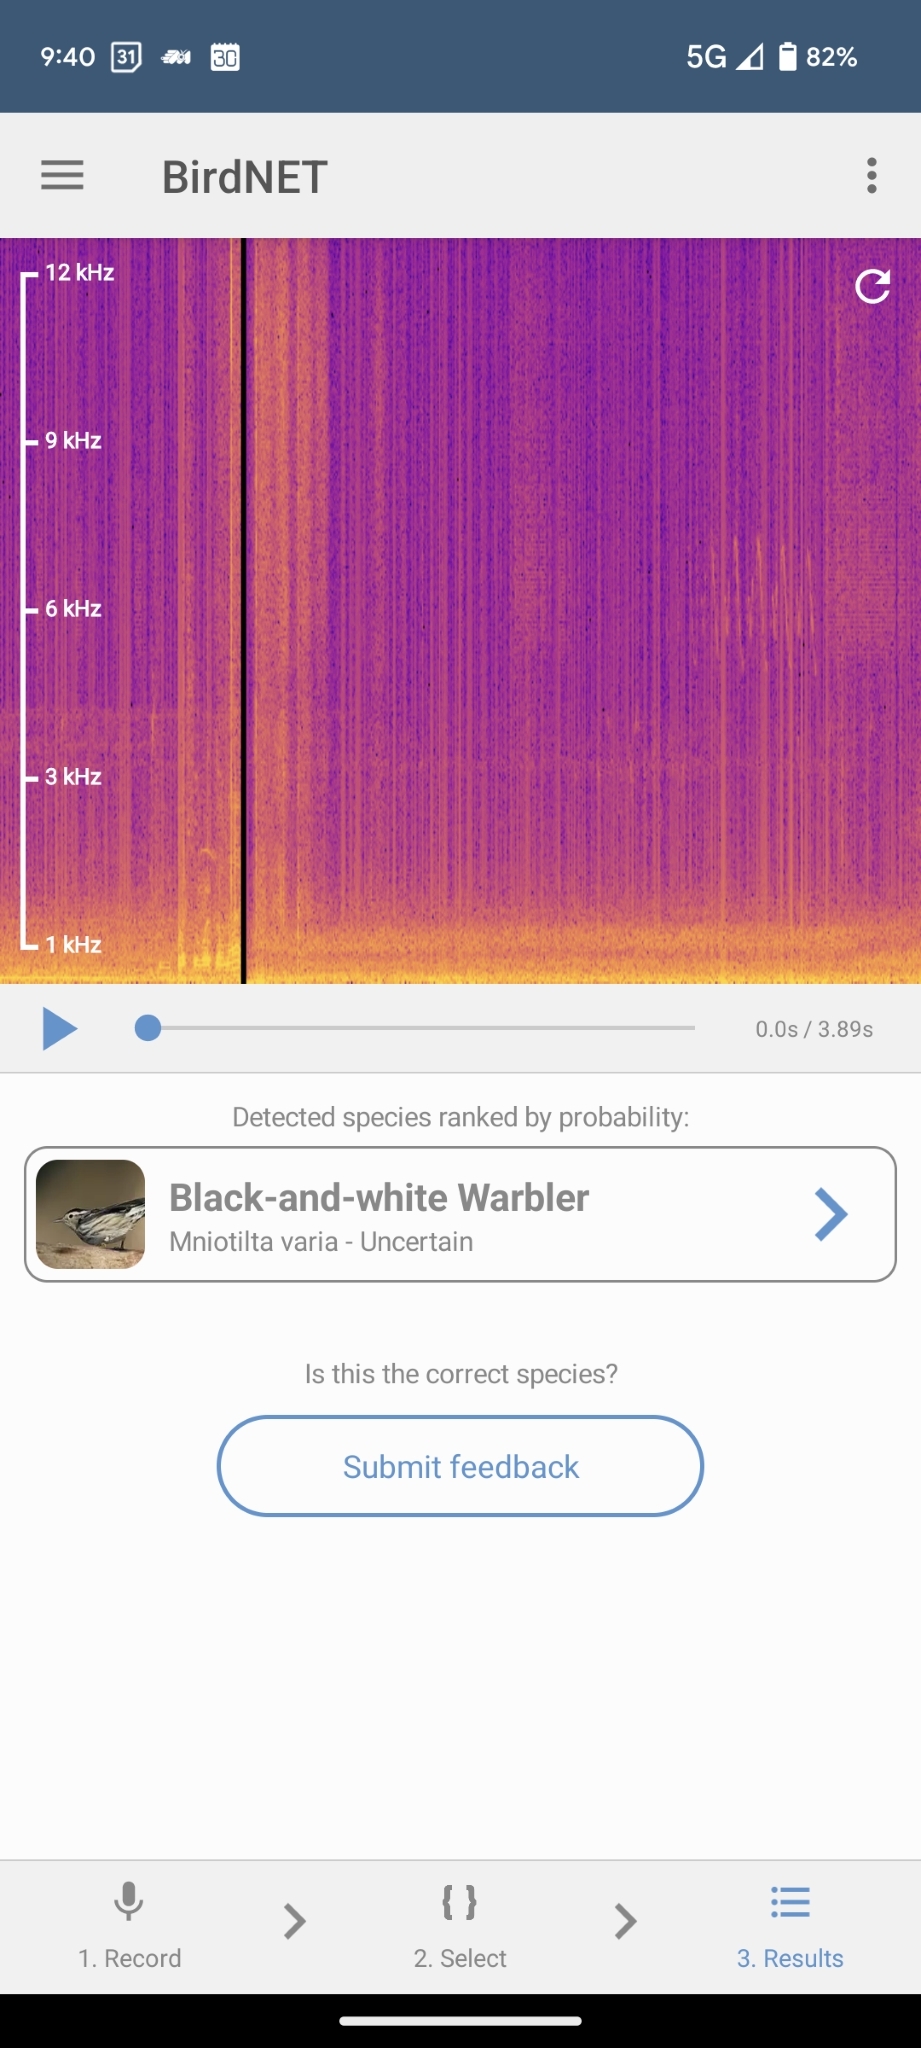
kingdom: Animalia
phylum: Chordata
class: Aves
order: Passeriformes
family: Parulidae
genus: Mniotilta
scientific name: Mniotilta varia
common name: Black-and-white warbler
